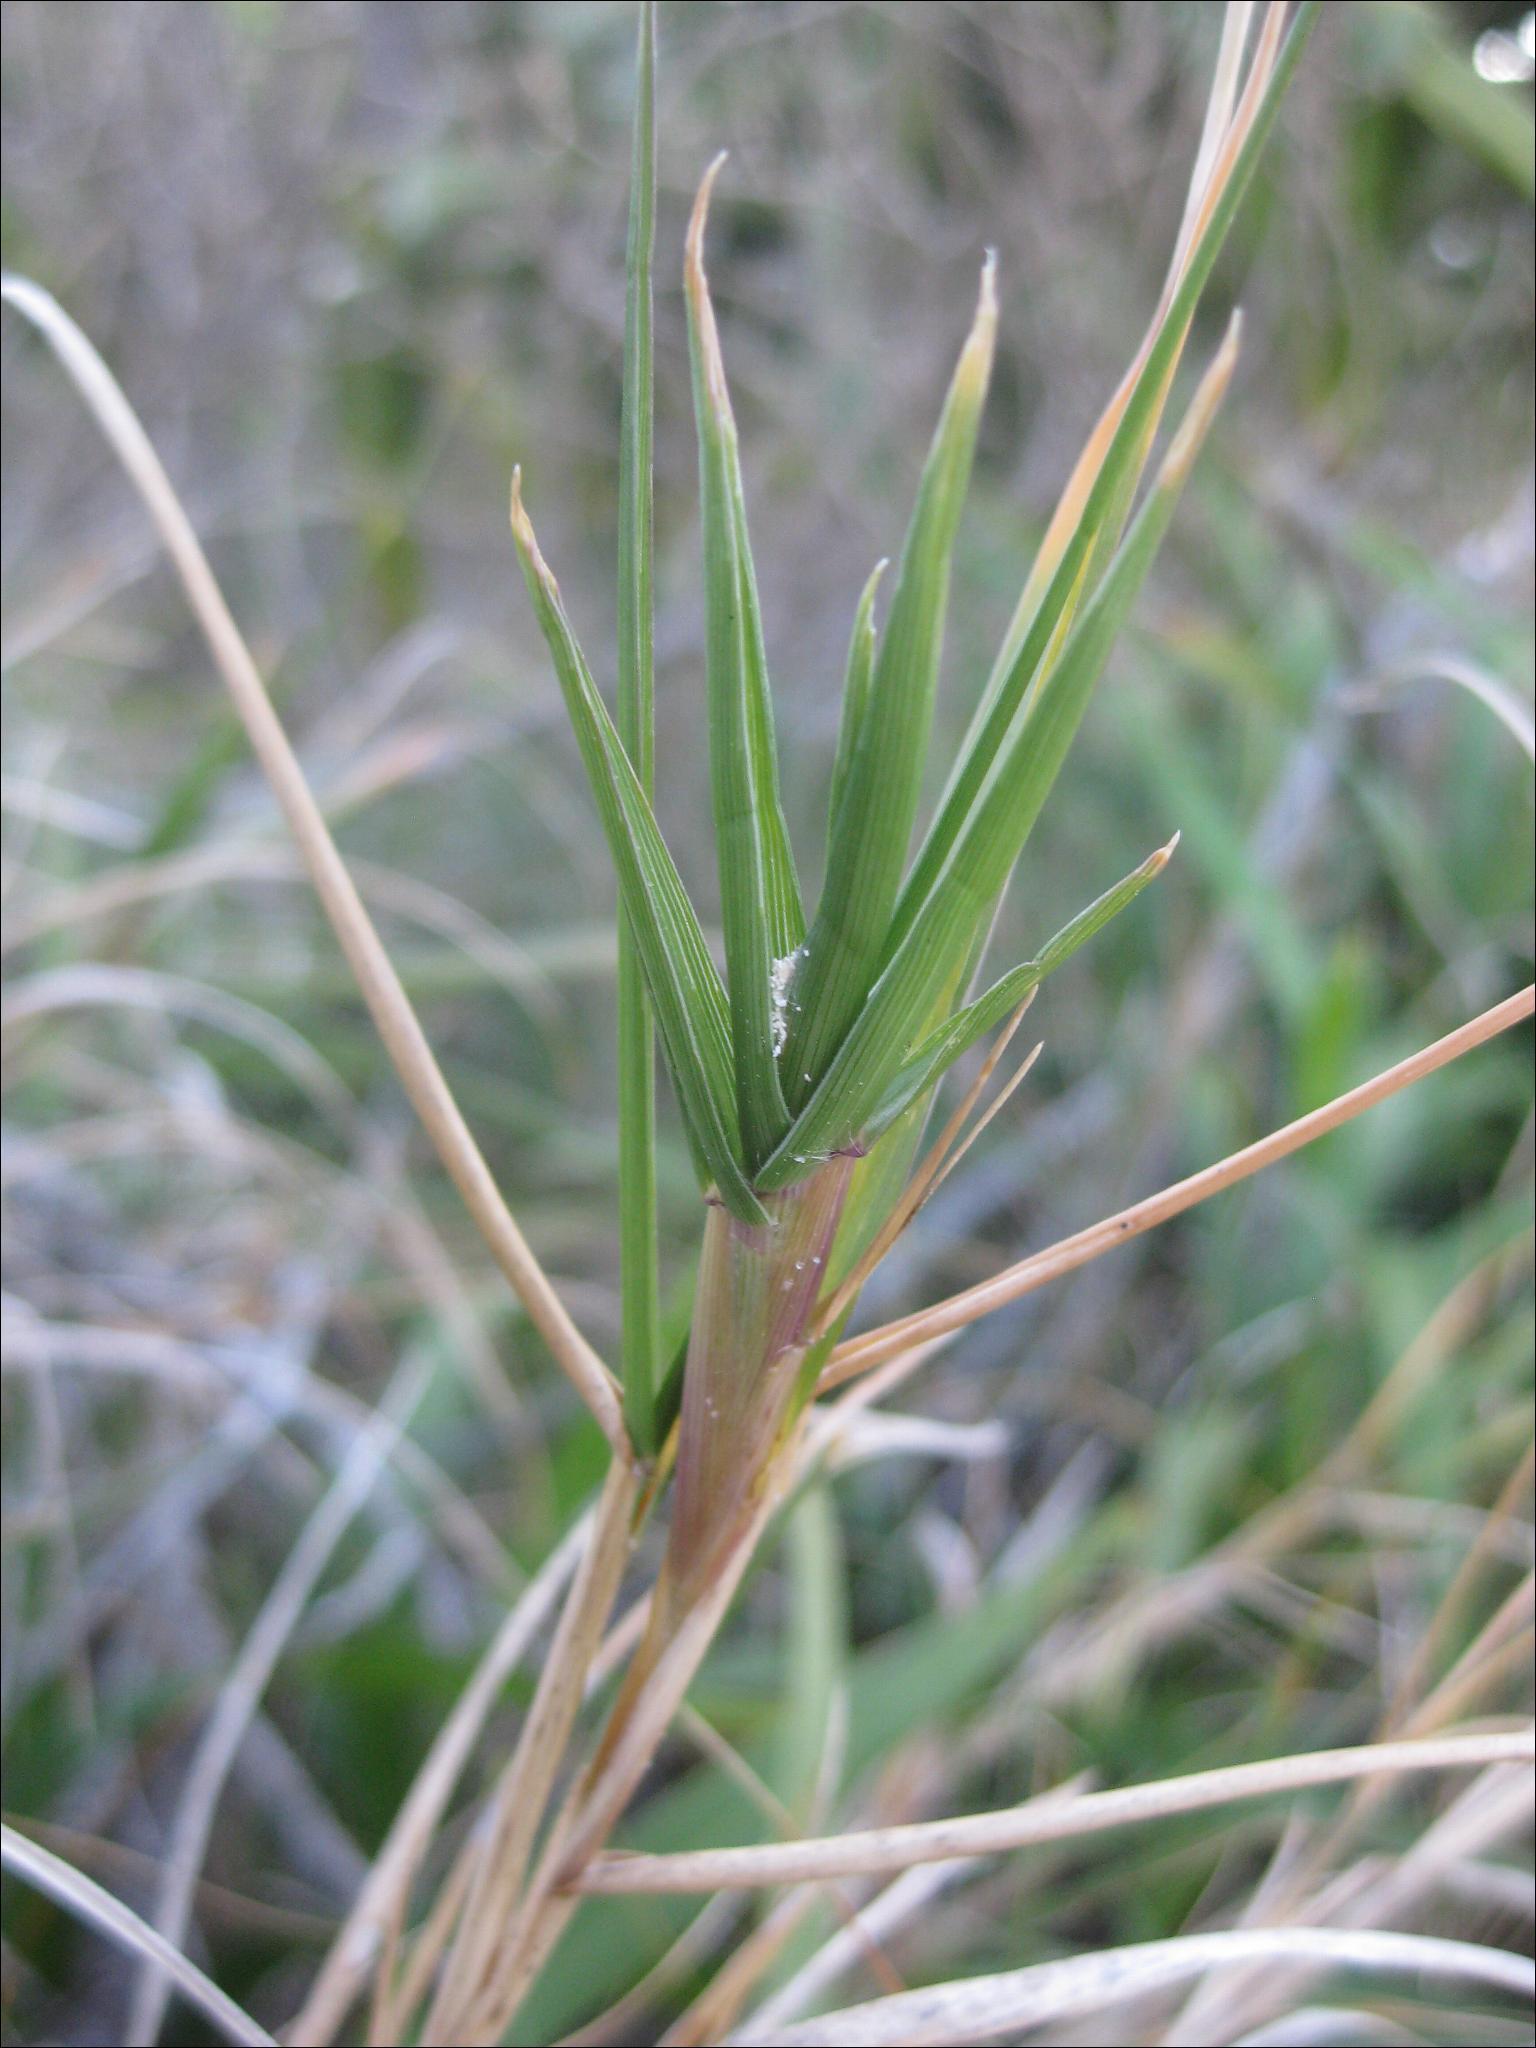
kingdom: Plantae
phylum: Tracheophyta
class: Liliopsida
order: Poales
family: Poaceae
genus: Sporobolus
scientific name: Sporobolus virginicus
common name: Beach dropseed
